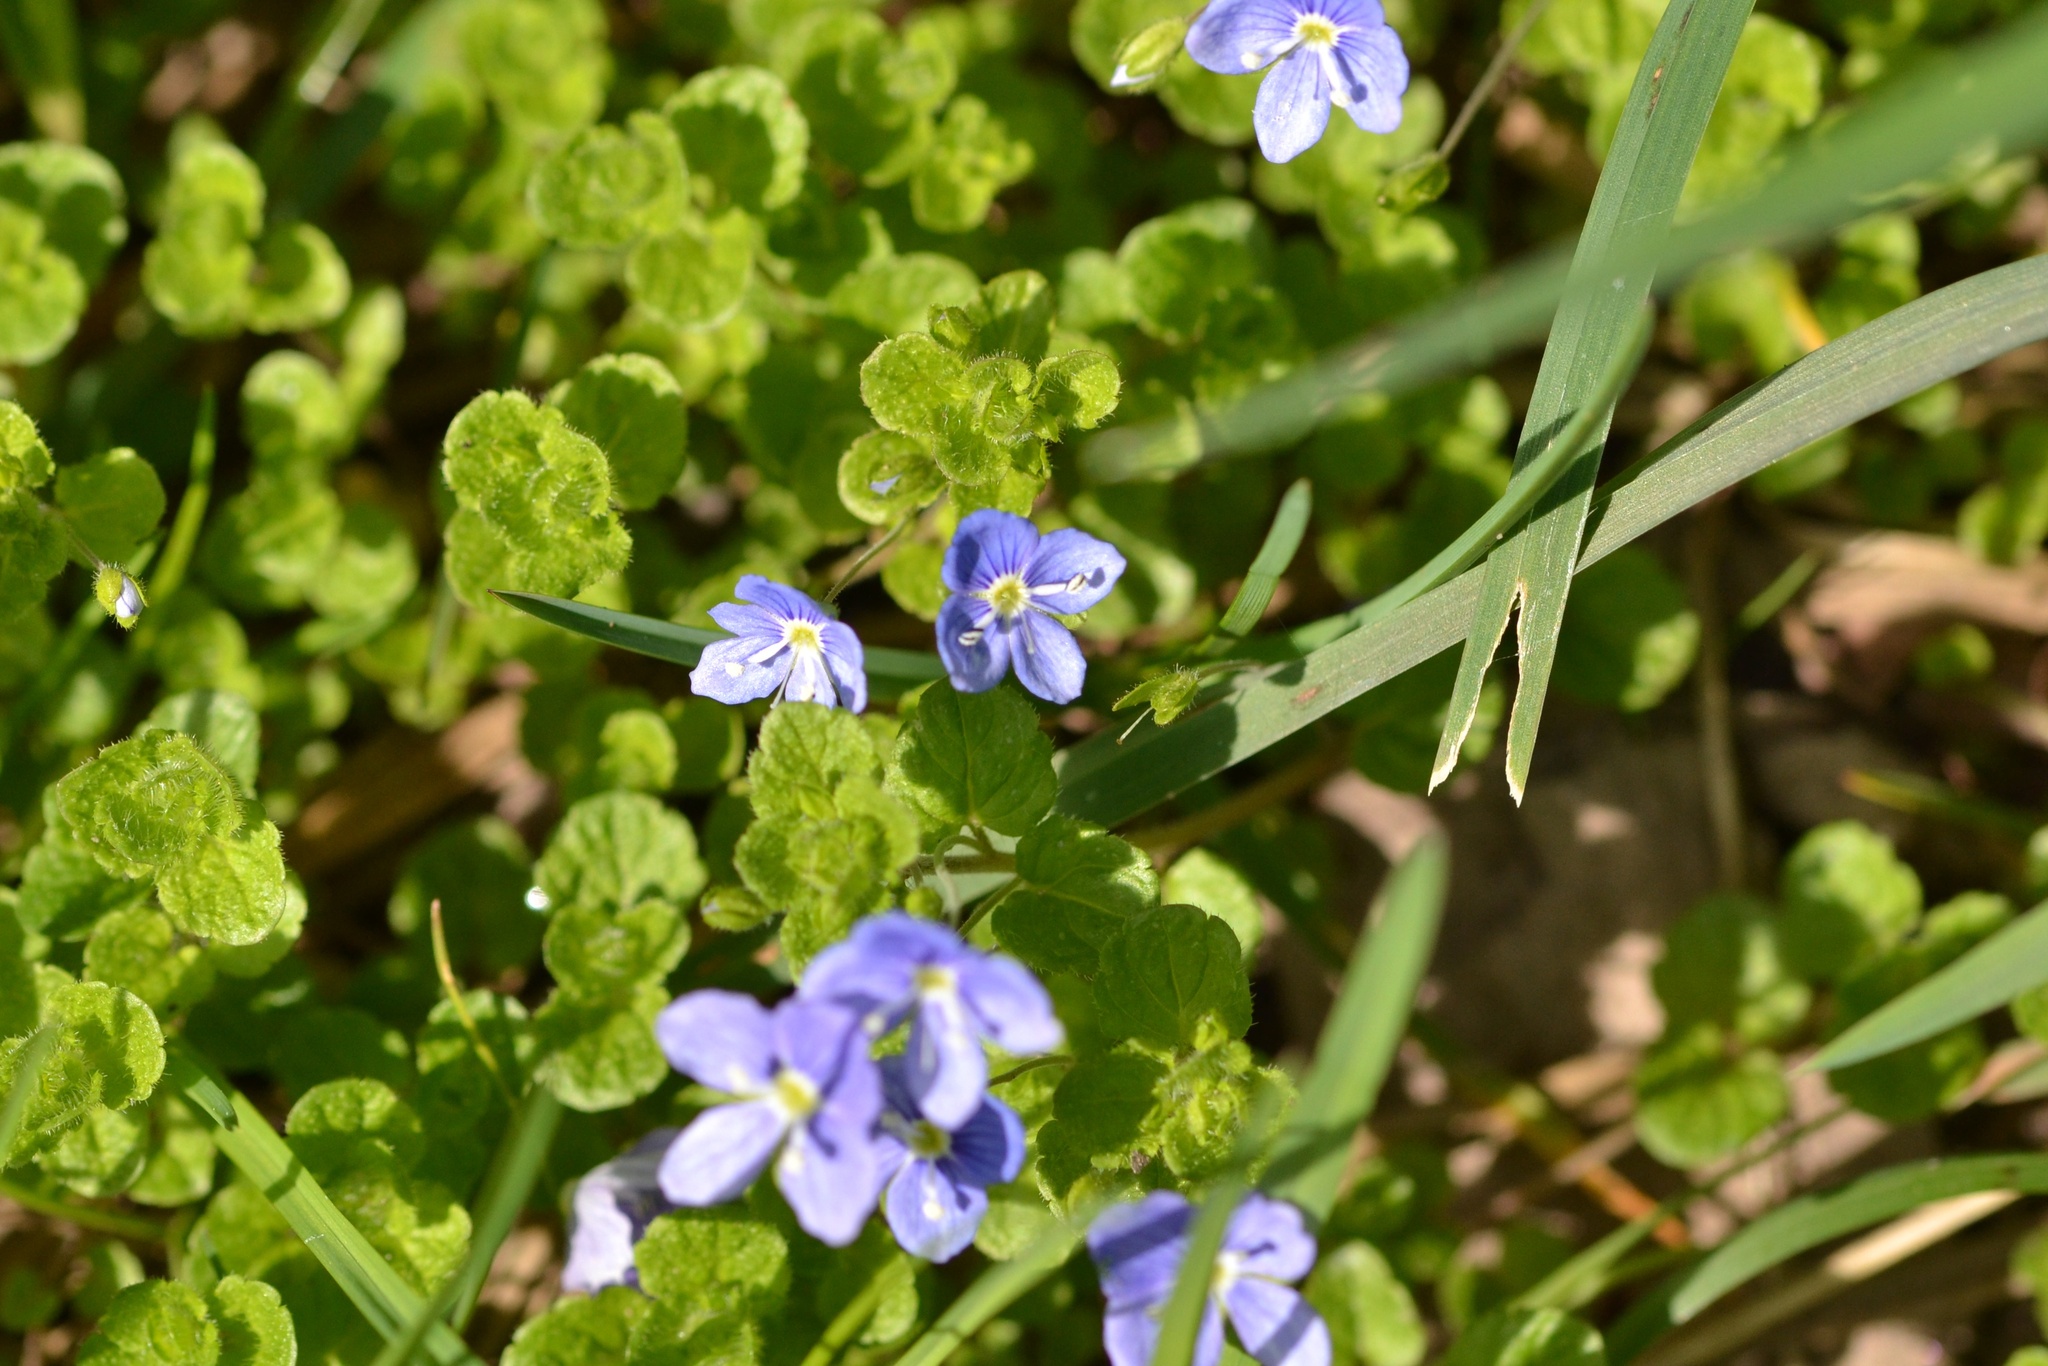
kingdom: Plantae
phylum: Tracheophyta
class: Magnoliopsida
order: Lamiales
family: Plantaginaceae
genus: Veronica
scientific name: Veronica filiformis
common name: Slender speedwell
